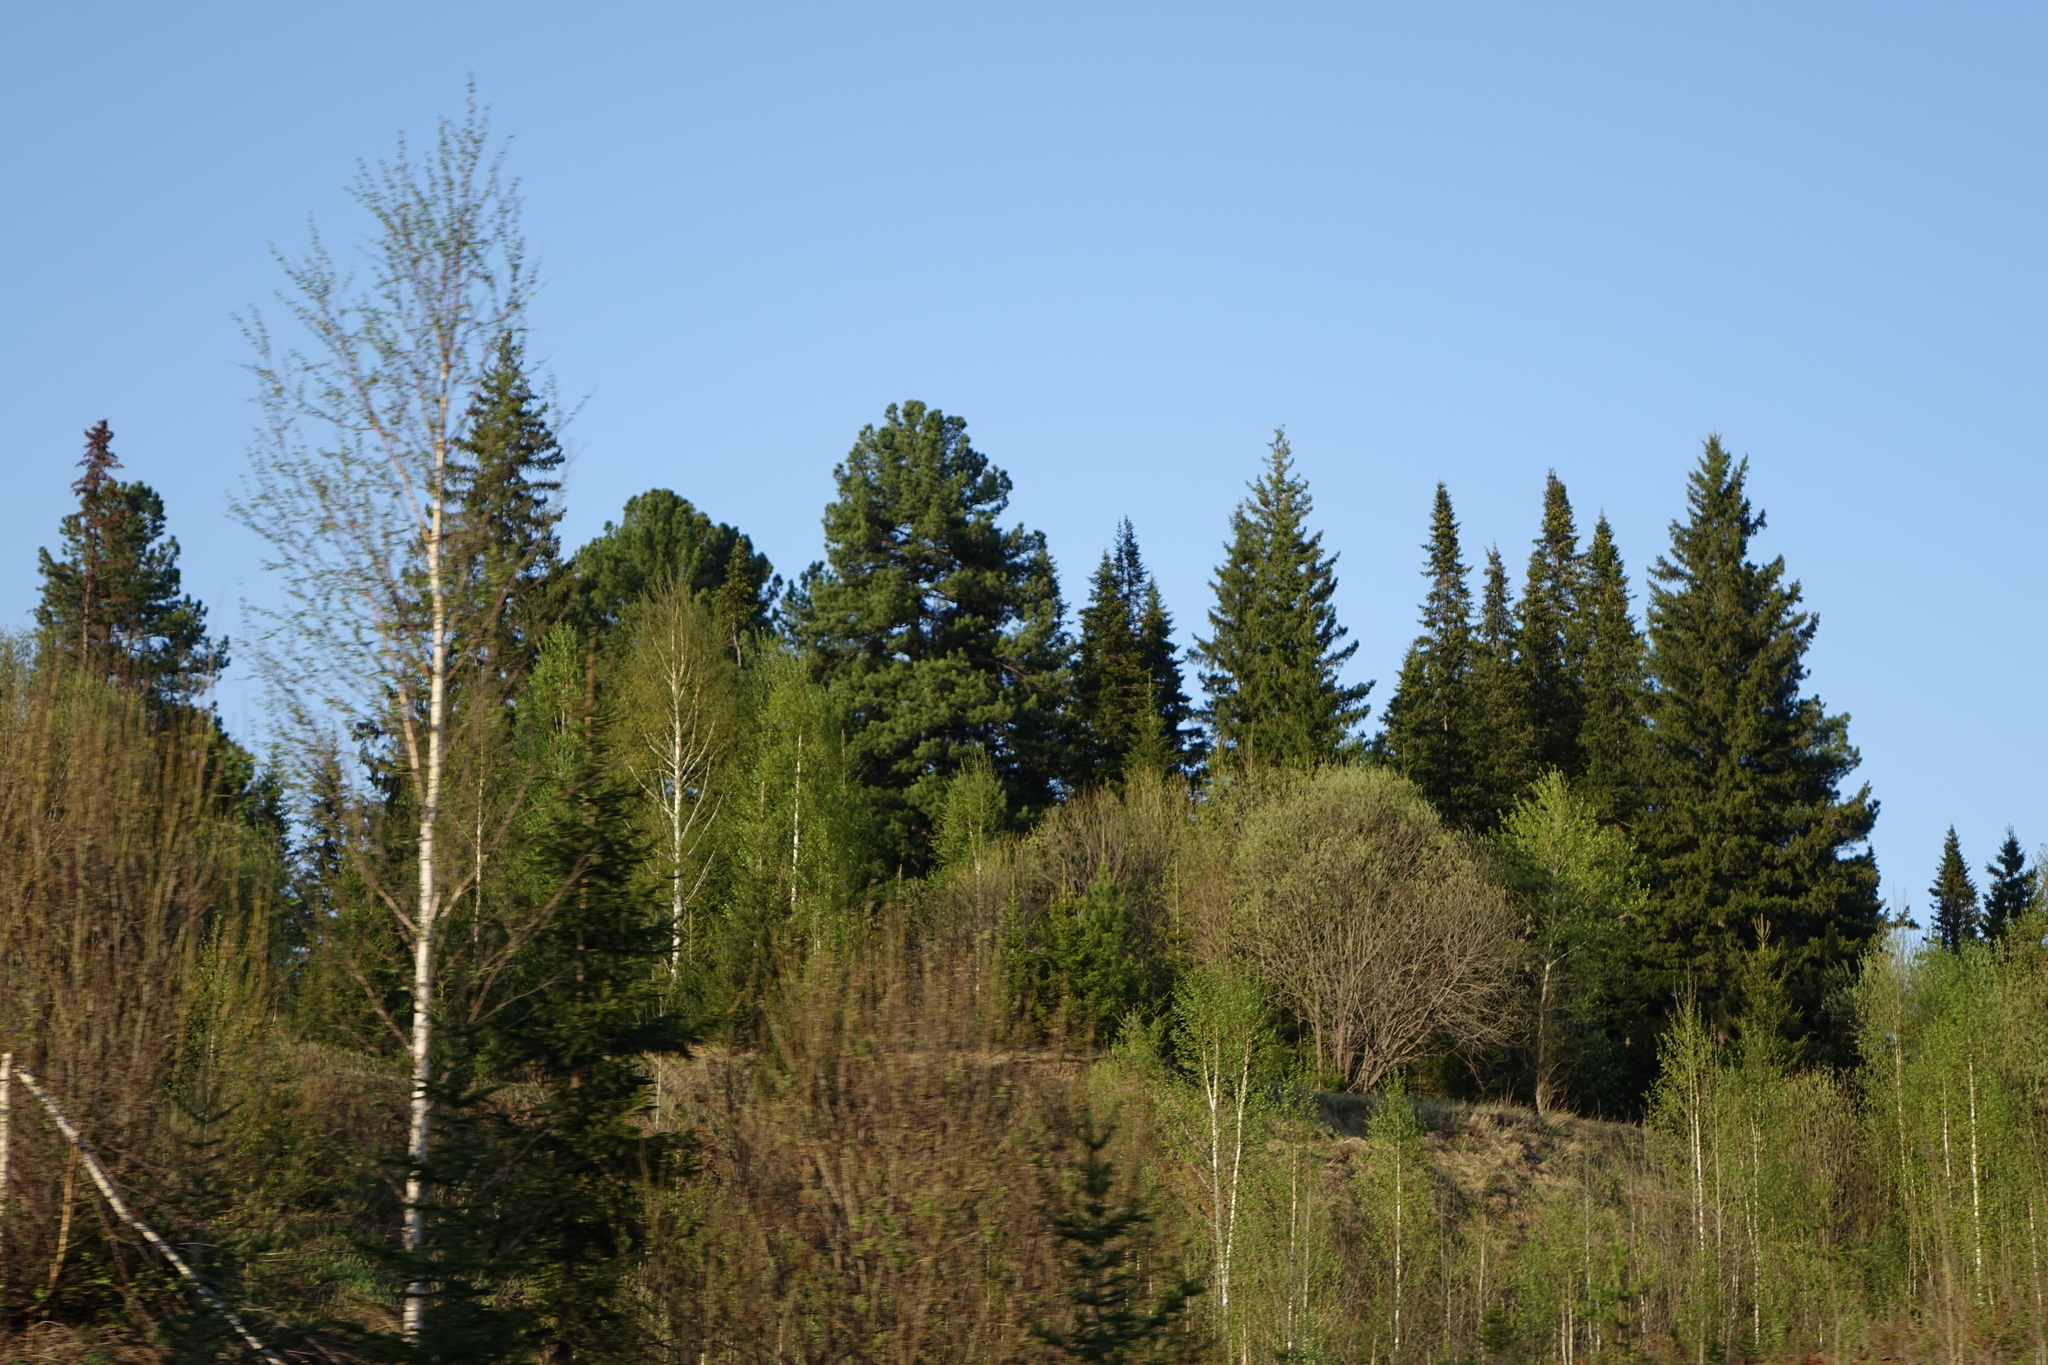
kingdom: Plantae
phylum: Tracheophyta
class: Pinopsida
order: Pinales
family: Pinaceae
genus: Pinus
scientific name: Pinus sibirica
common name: Siberian pine
